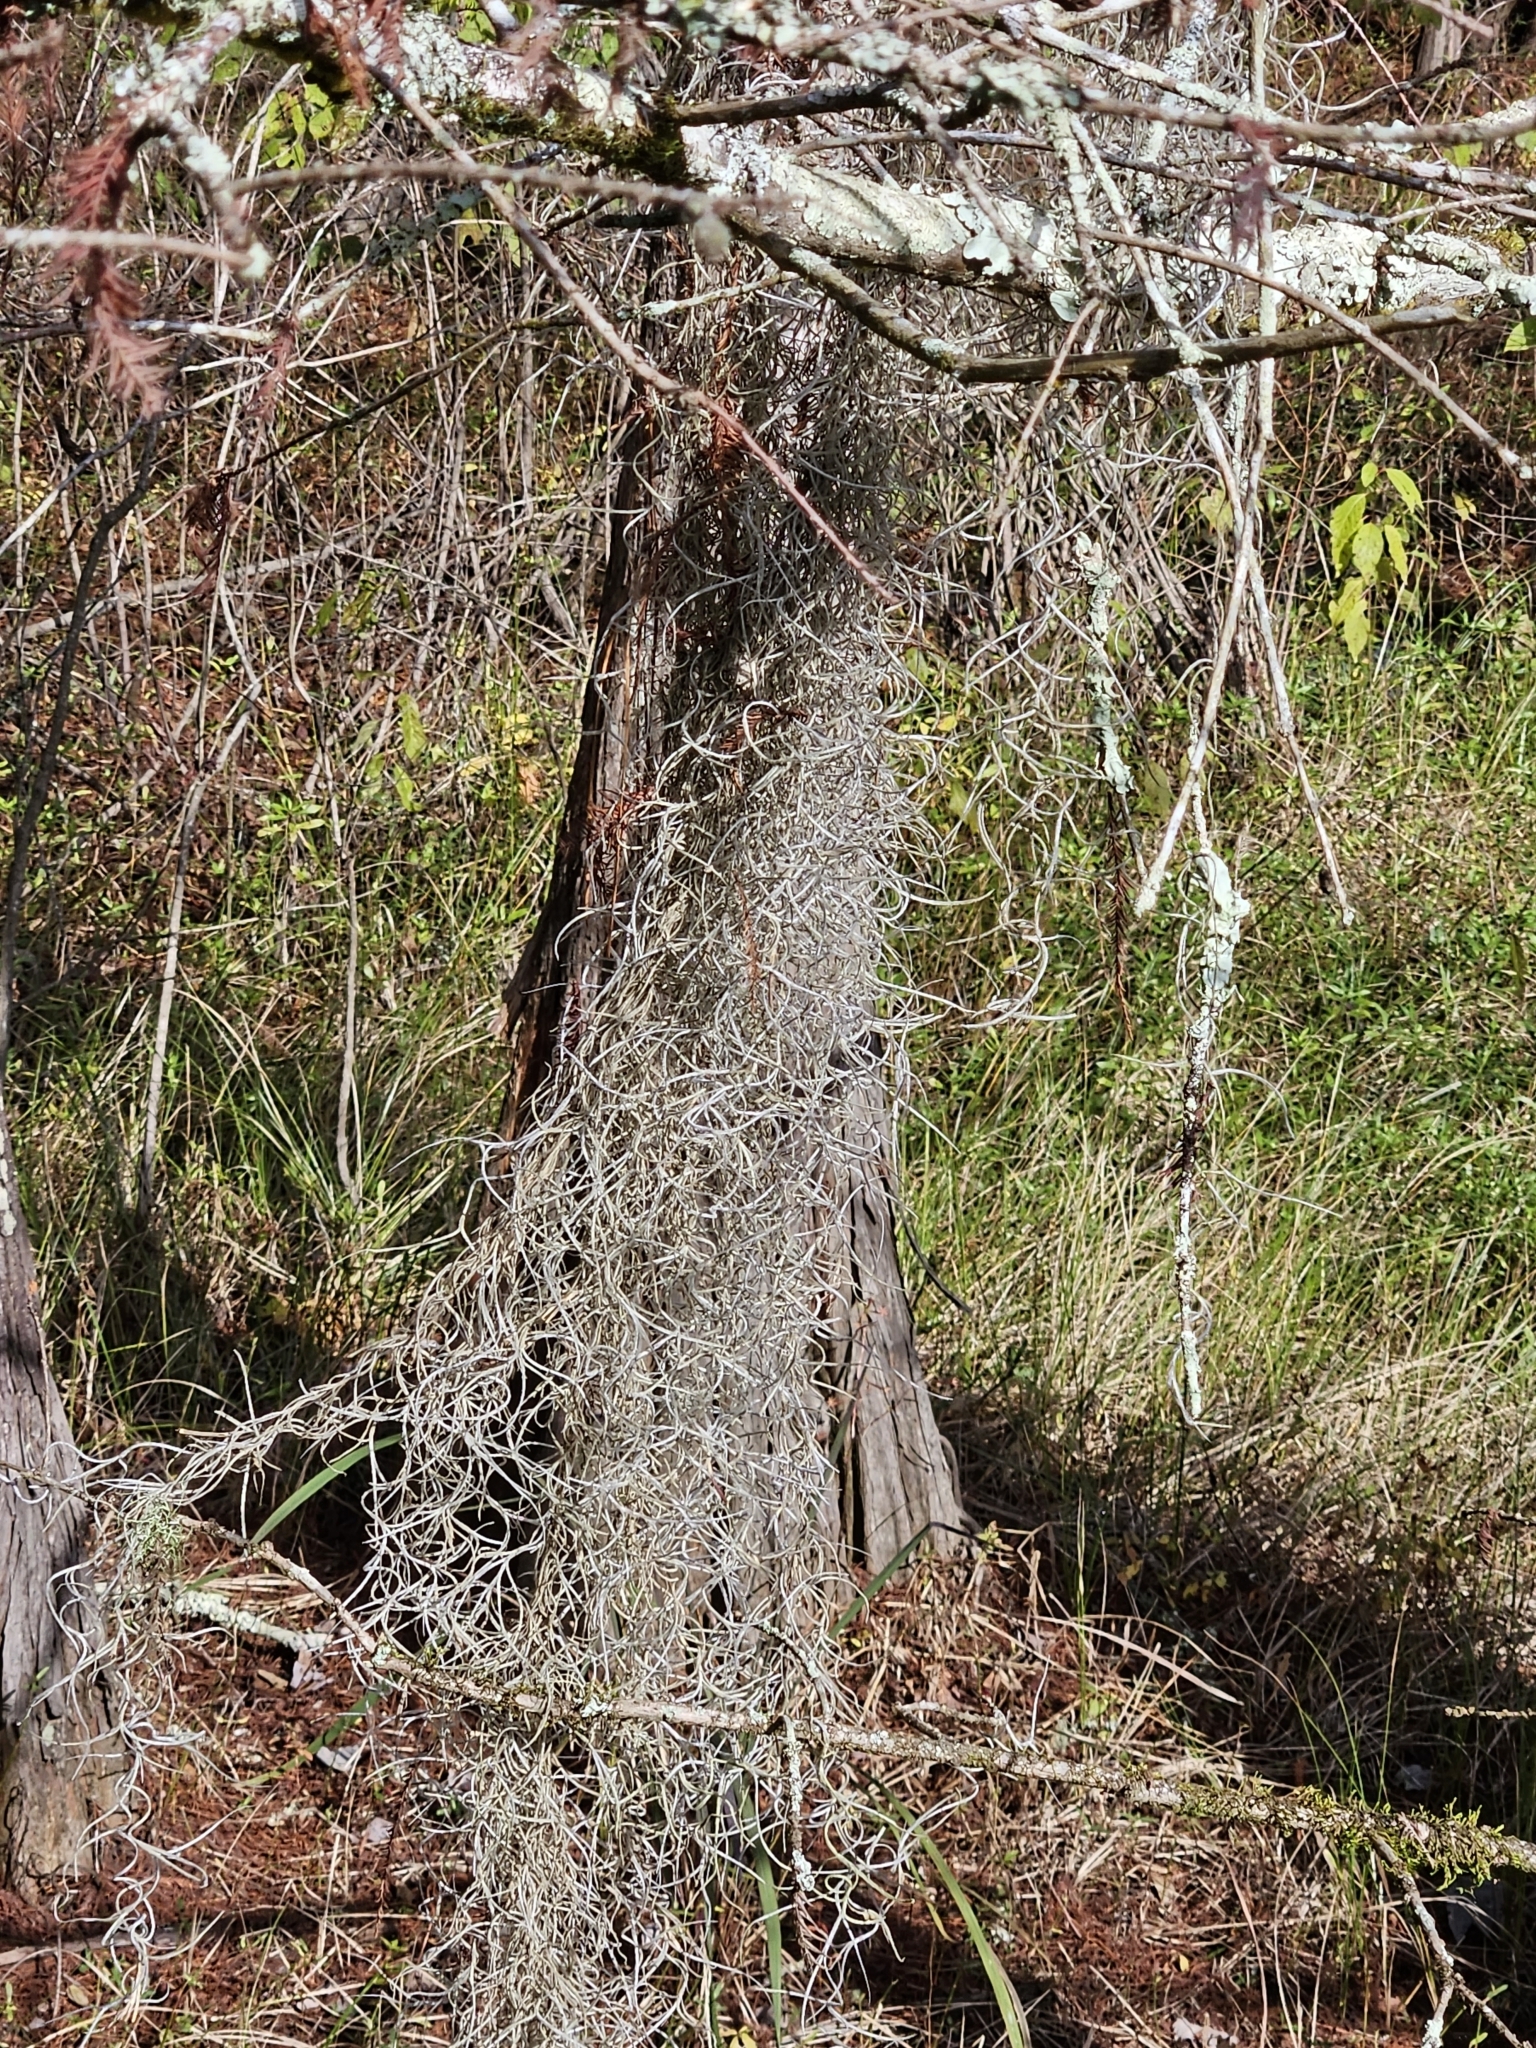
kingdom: Plantae
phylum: Tracheophyta
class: Liliopsida
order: Poales
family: Bromeliaceae
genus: Tillandsia
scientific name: Tillandsia usneoides
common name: Spanish moss
